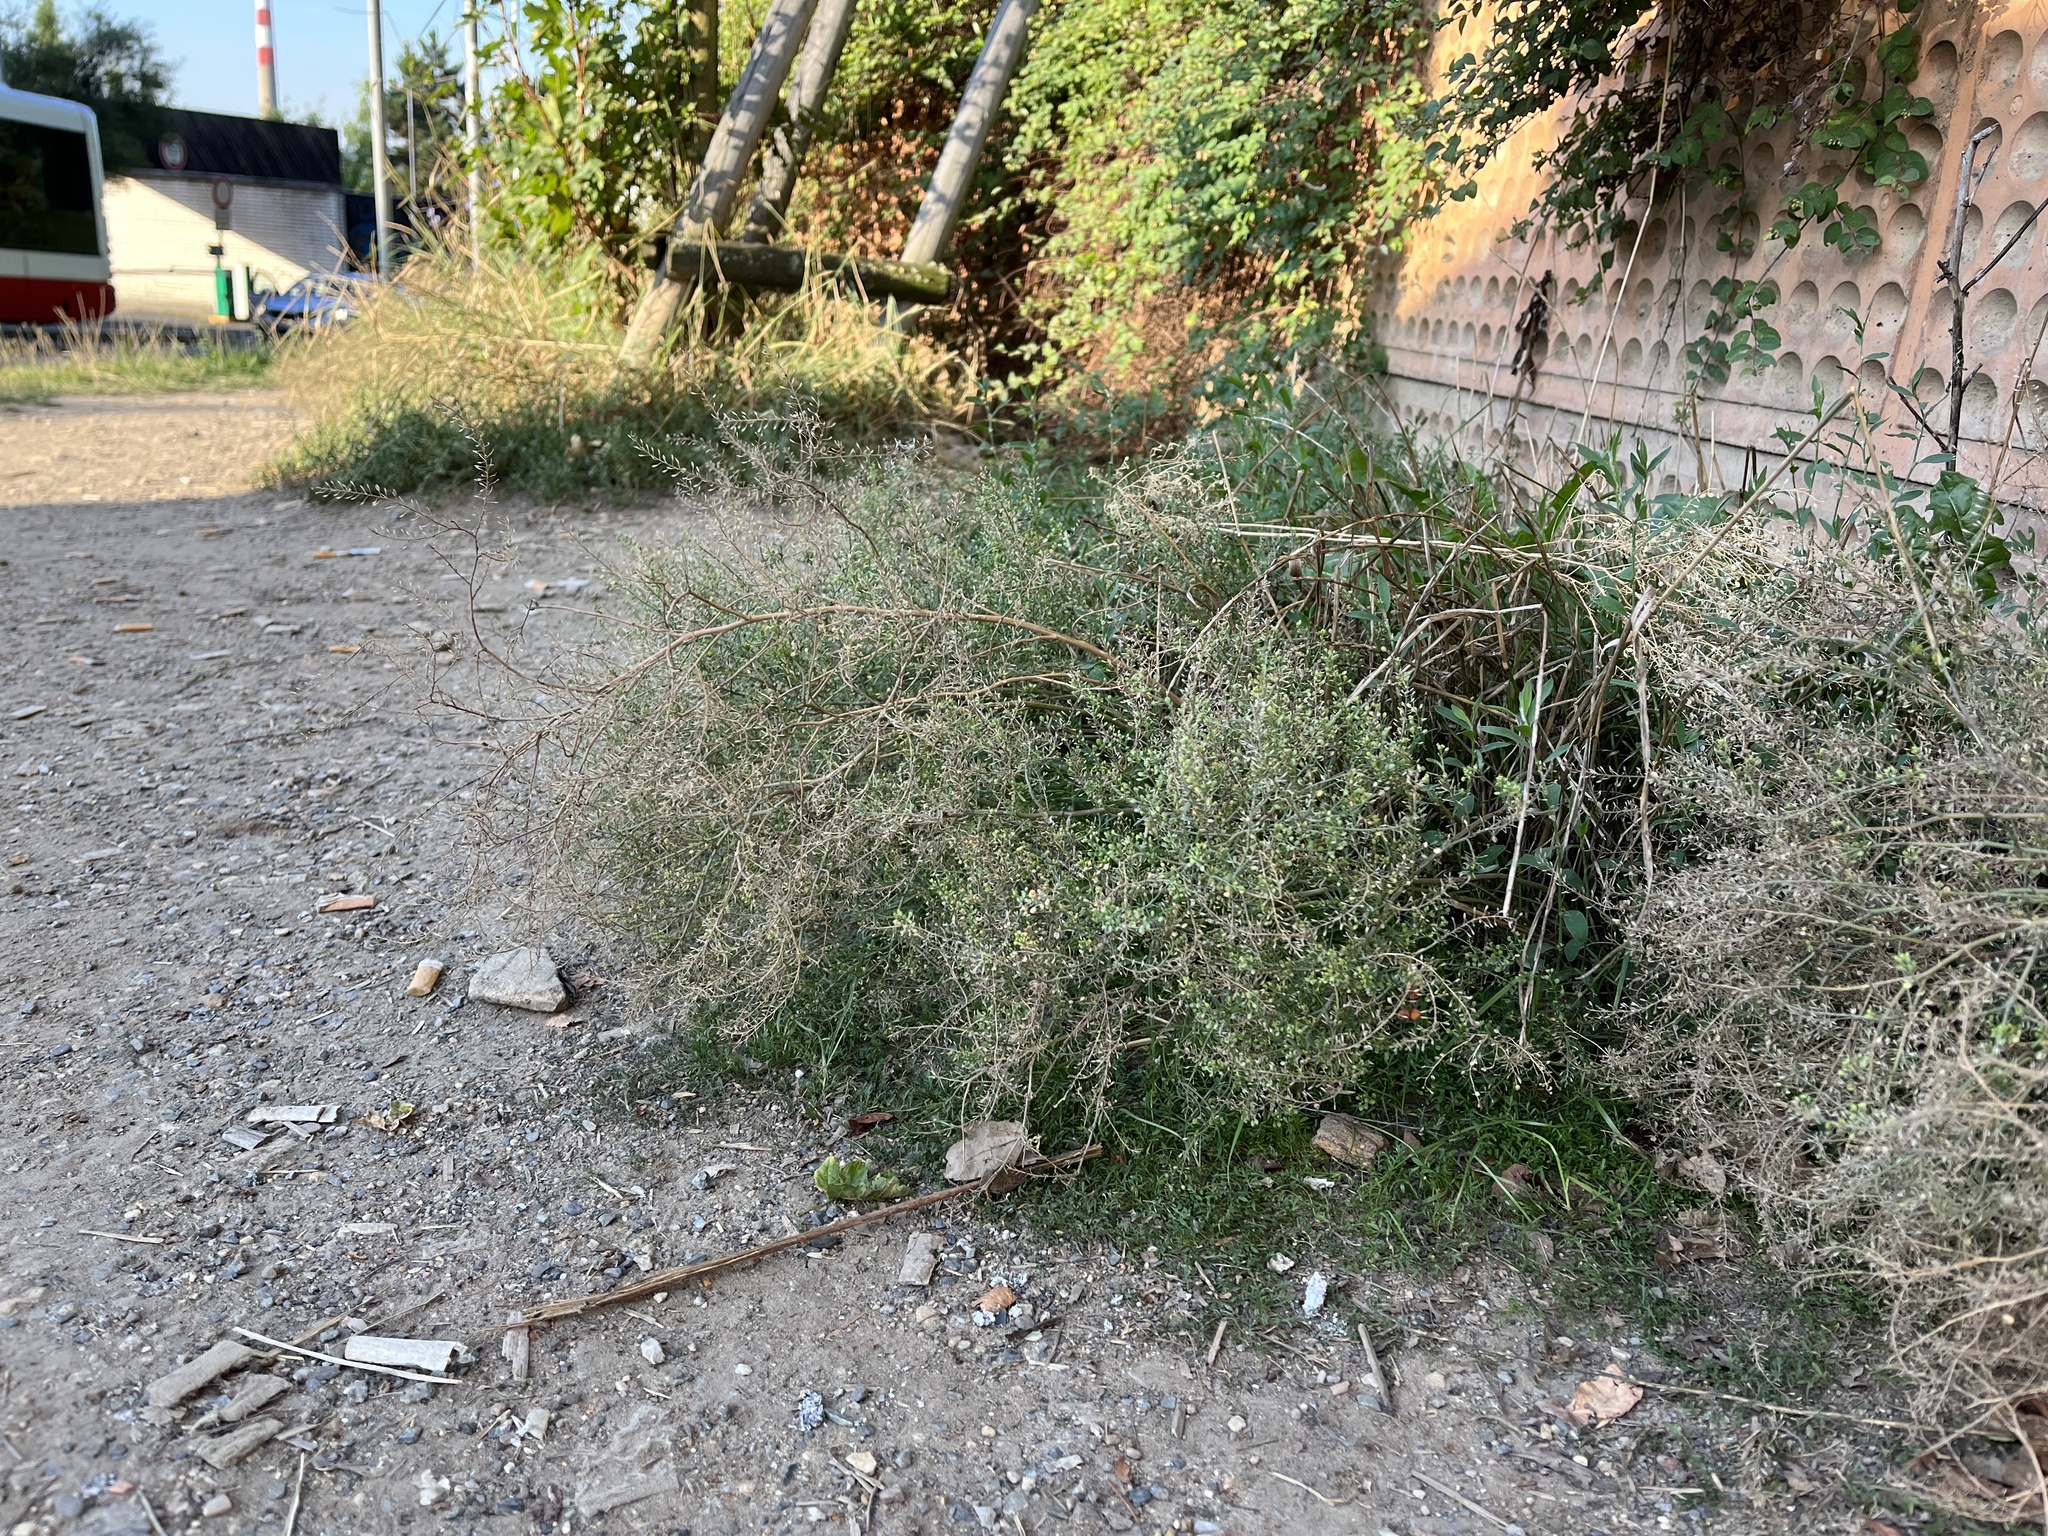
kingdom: Plantae
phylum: Tracheophyta
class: Magnoliopsida
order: Brassicales
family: Brassicaceae
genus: Lepidium
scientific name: Lepidium ruderale
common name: Narrow-leaved pepperwort
